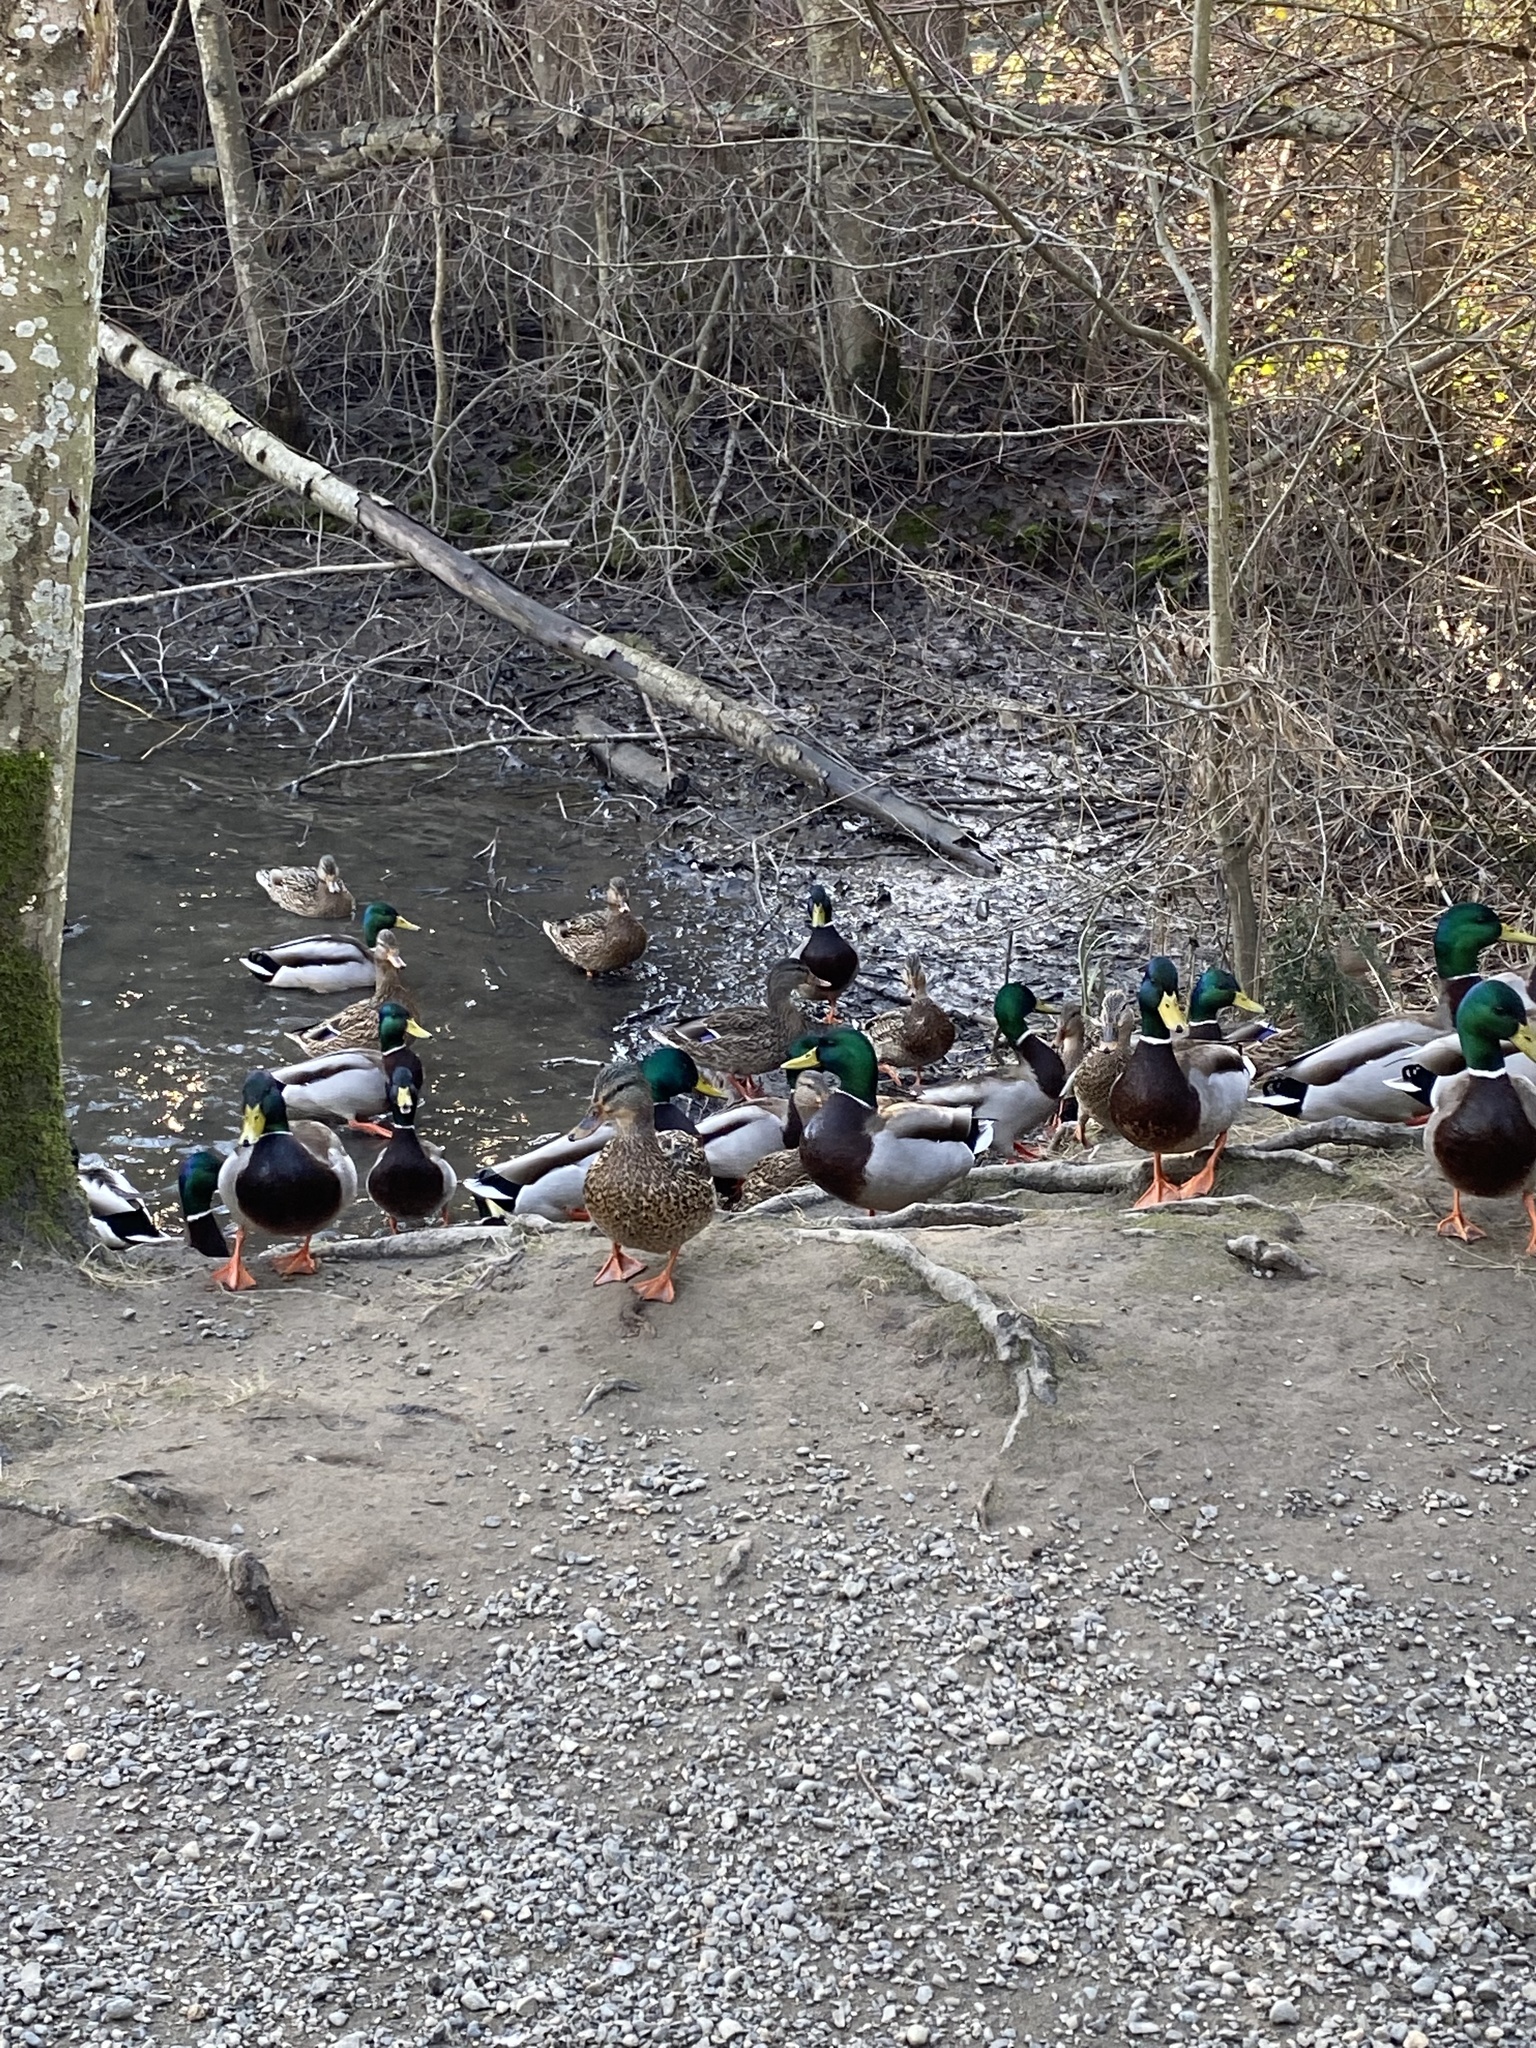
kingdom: Animalia
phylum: Chordata
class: Aves
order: Anseriformes
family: Anatidae
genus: Anas
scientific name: Anas platyrhynchos
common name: Mallard
